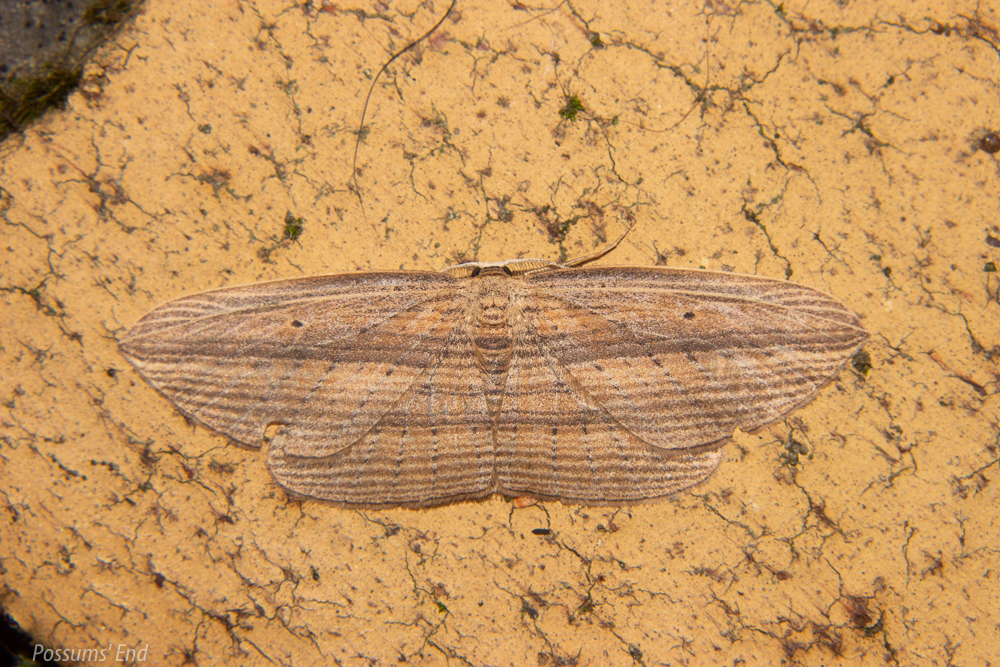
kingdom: Animalia
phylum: Arthropoda
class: Insecta
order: Lepidoptera
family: Geometridae
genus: Epiphryne
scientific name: Epiphryne verriculata
